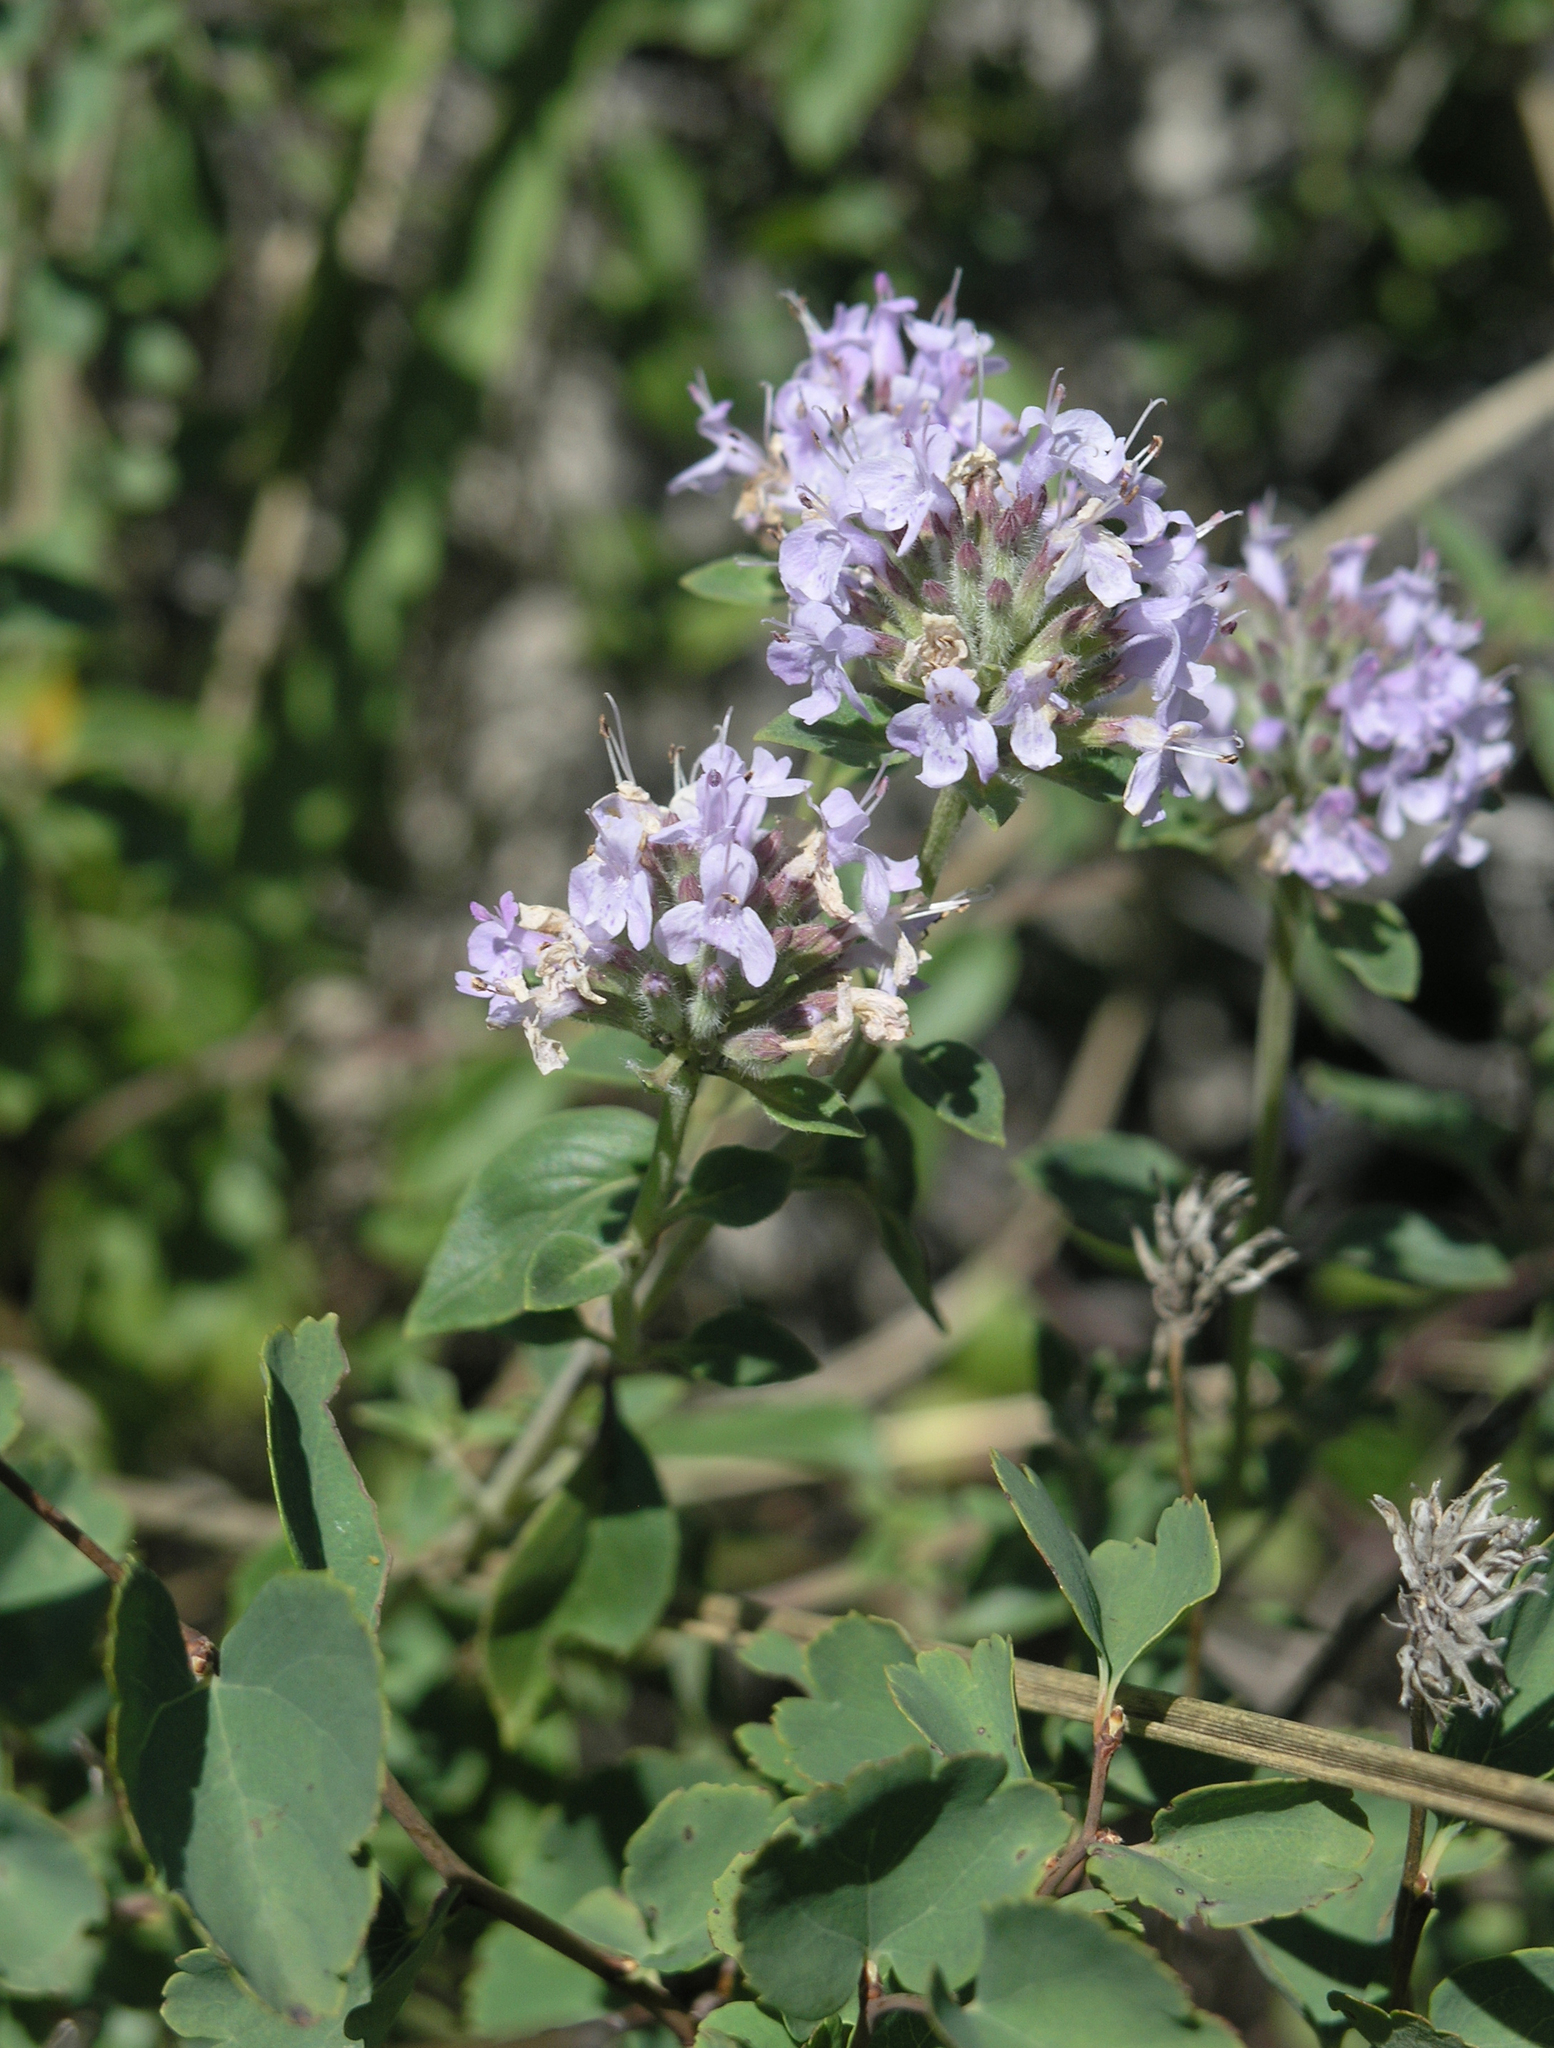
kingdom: Plantae
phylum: Tracheophyta
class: Magnoliopsida
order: Lamiales
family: Lamiaceae
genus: Ziziphora
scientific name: Ziziphora clinopodioides
